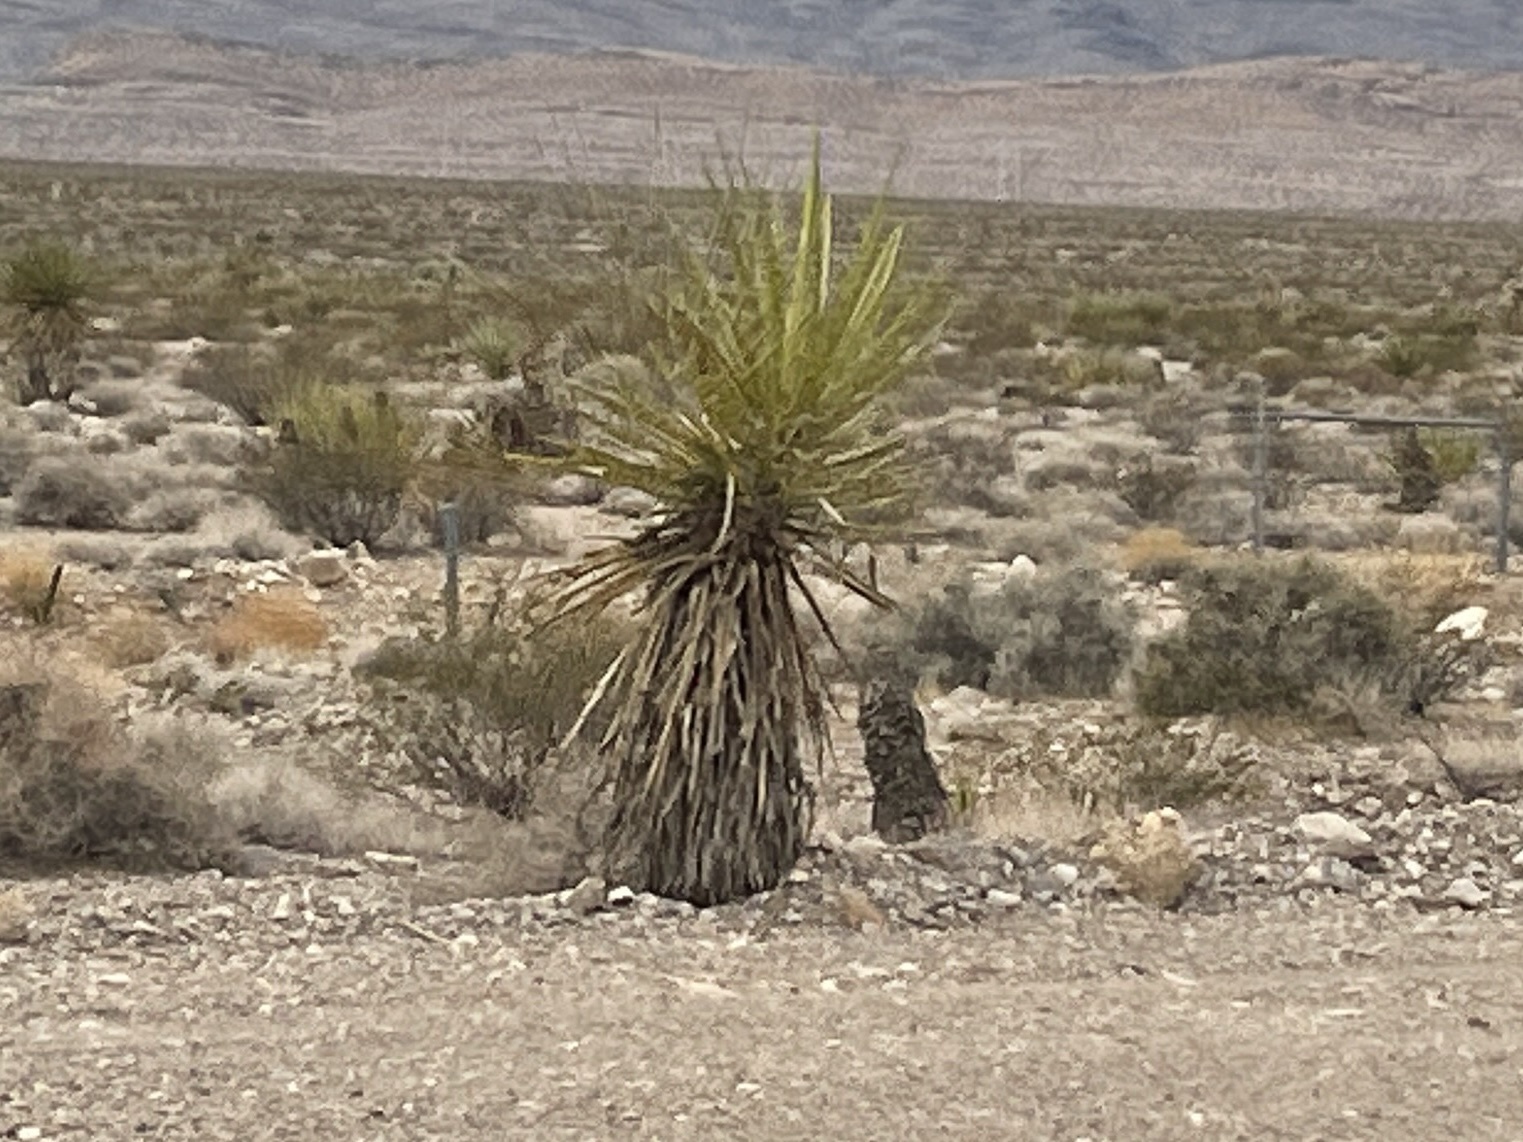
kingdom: Plantae
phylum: Tracheophyta
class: Liliopsida
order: Asparagales
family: Asparagaceae
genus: Yucca
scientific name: Yucca schidigera
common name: Mojave yucca
